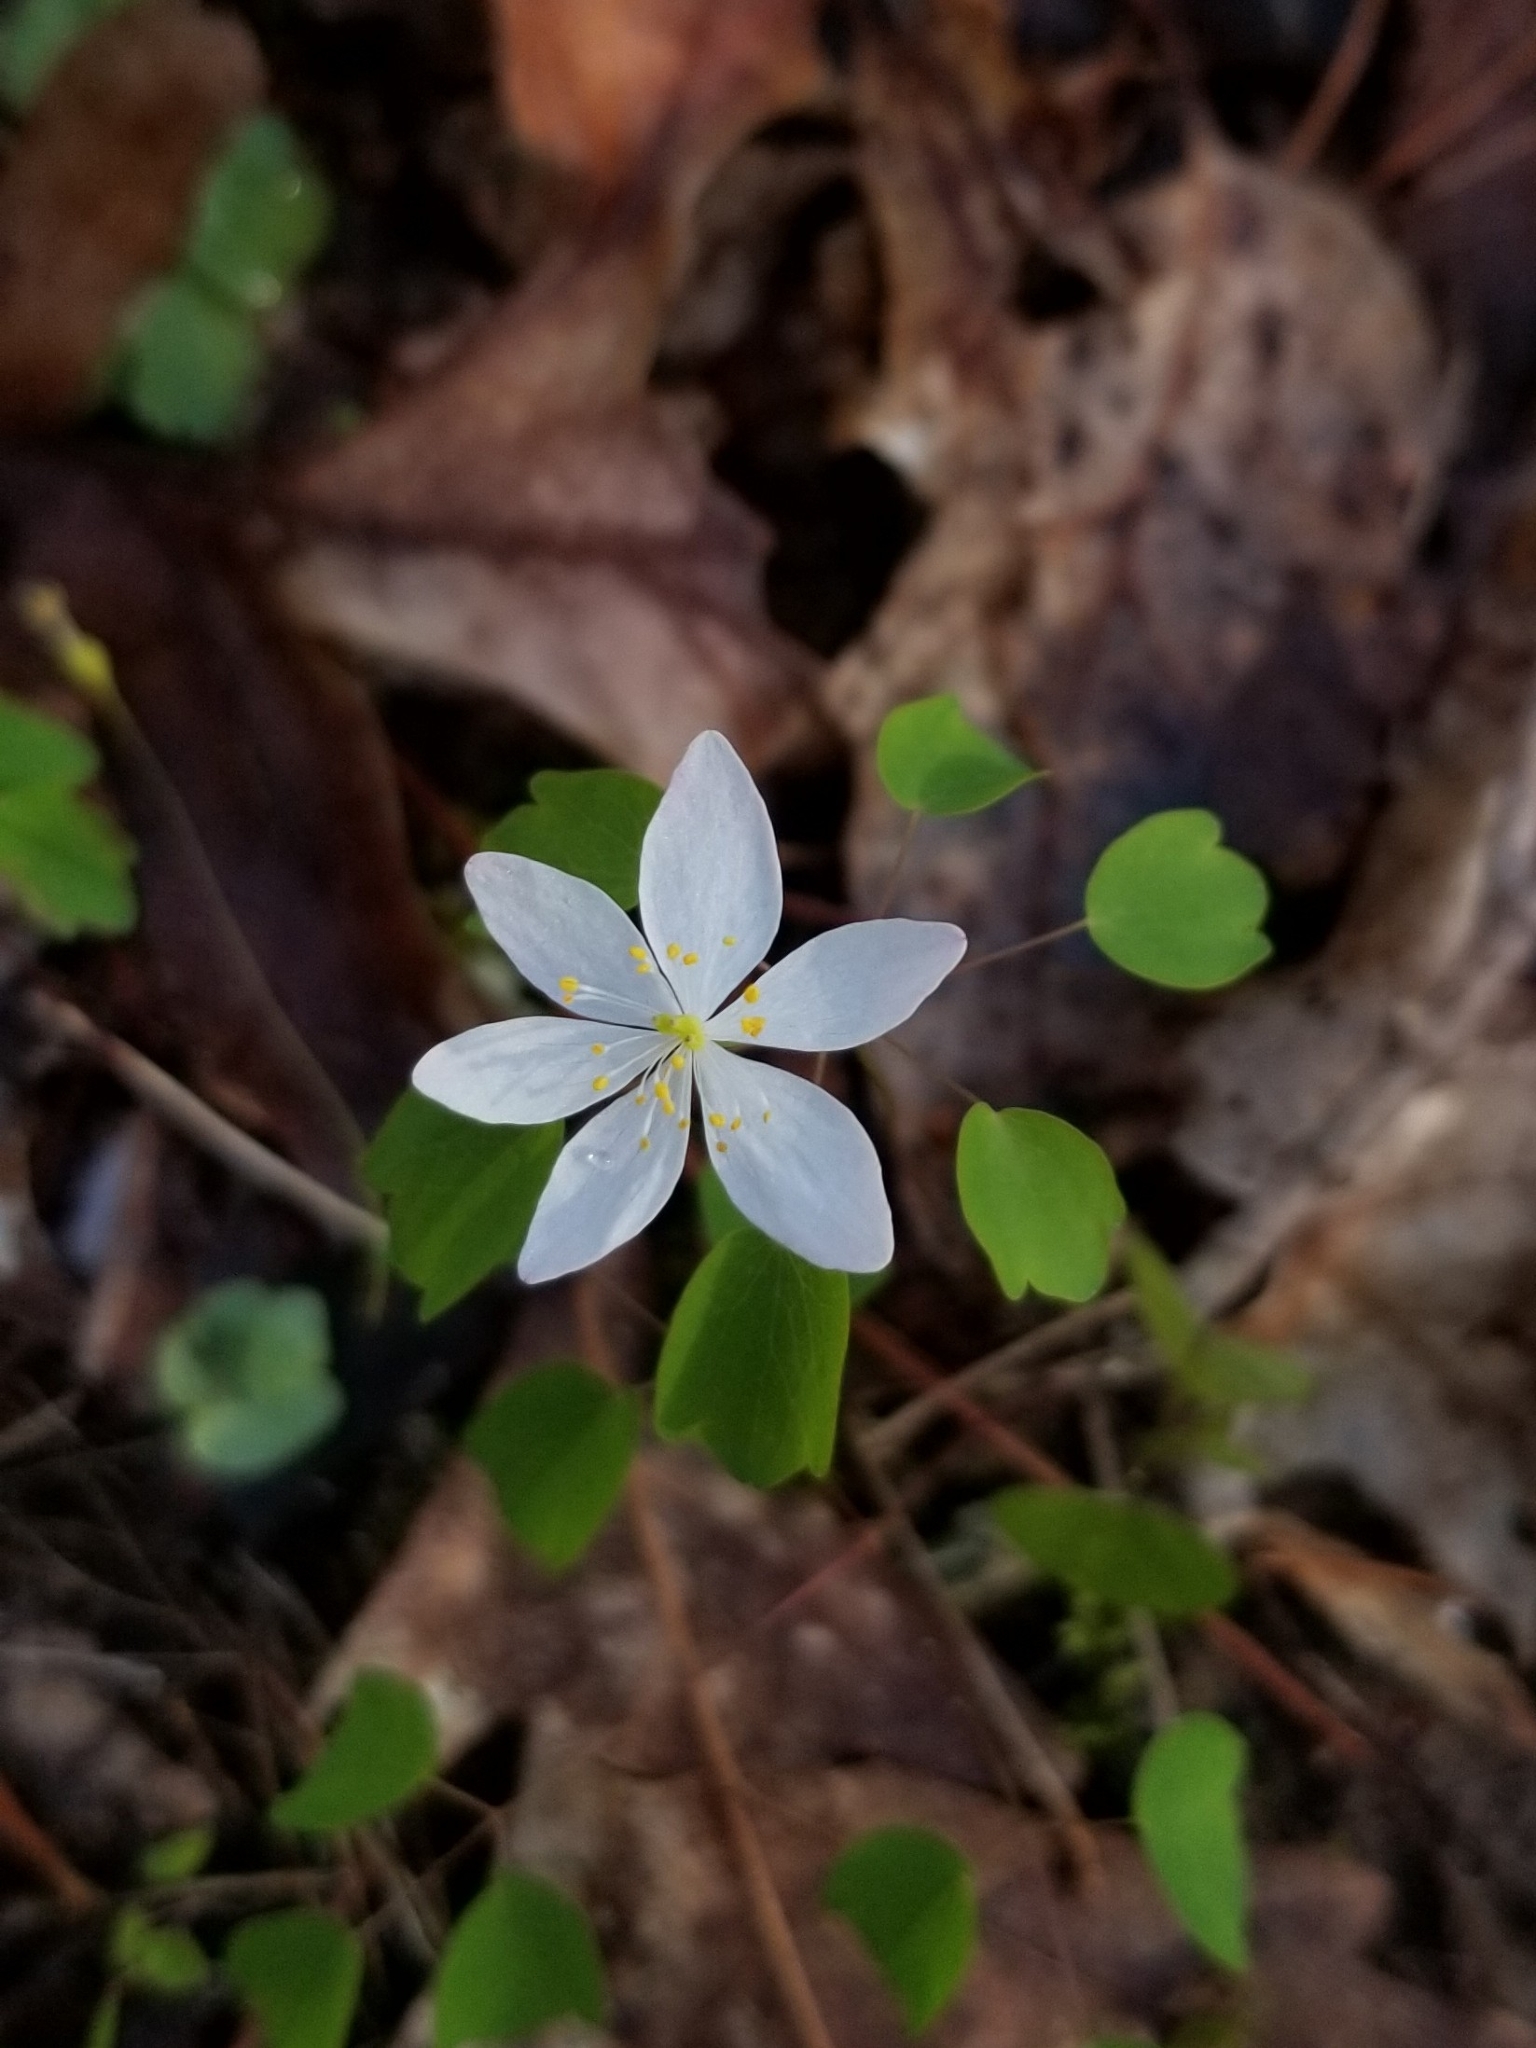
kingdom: Plantae
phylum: Tracheophyta
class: Magnoliopsida
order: Ranunculales
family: Ranunculaceae
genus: Thalictrum
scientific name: Thalictrum thalictroides
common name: Rue-anemone
